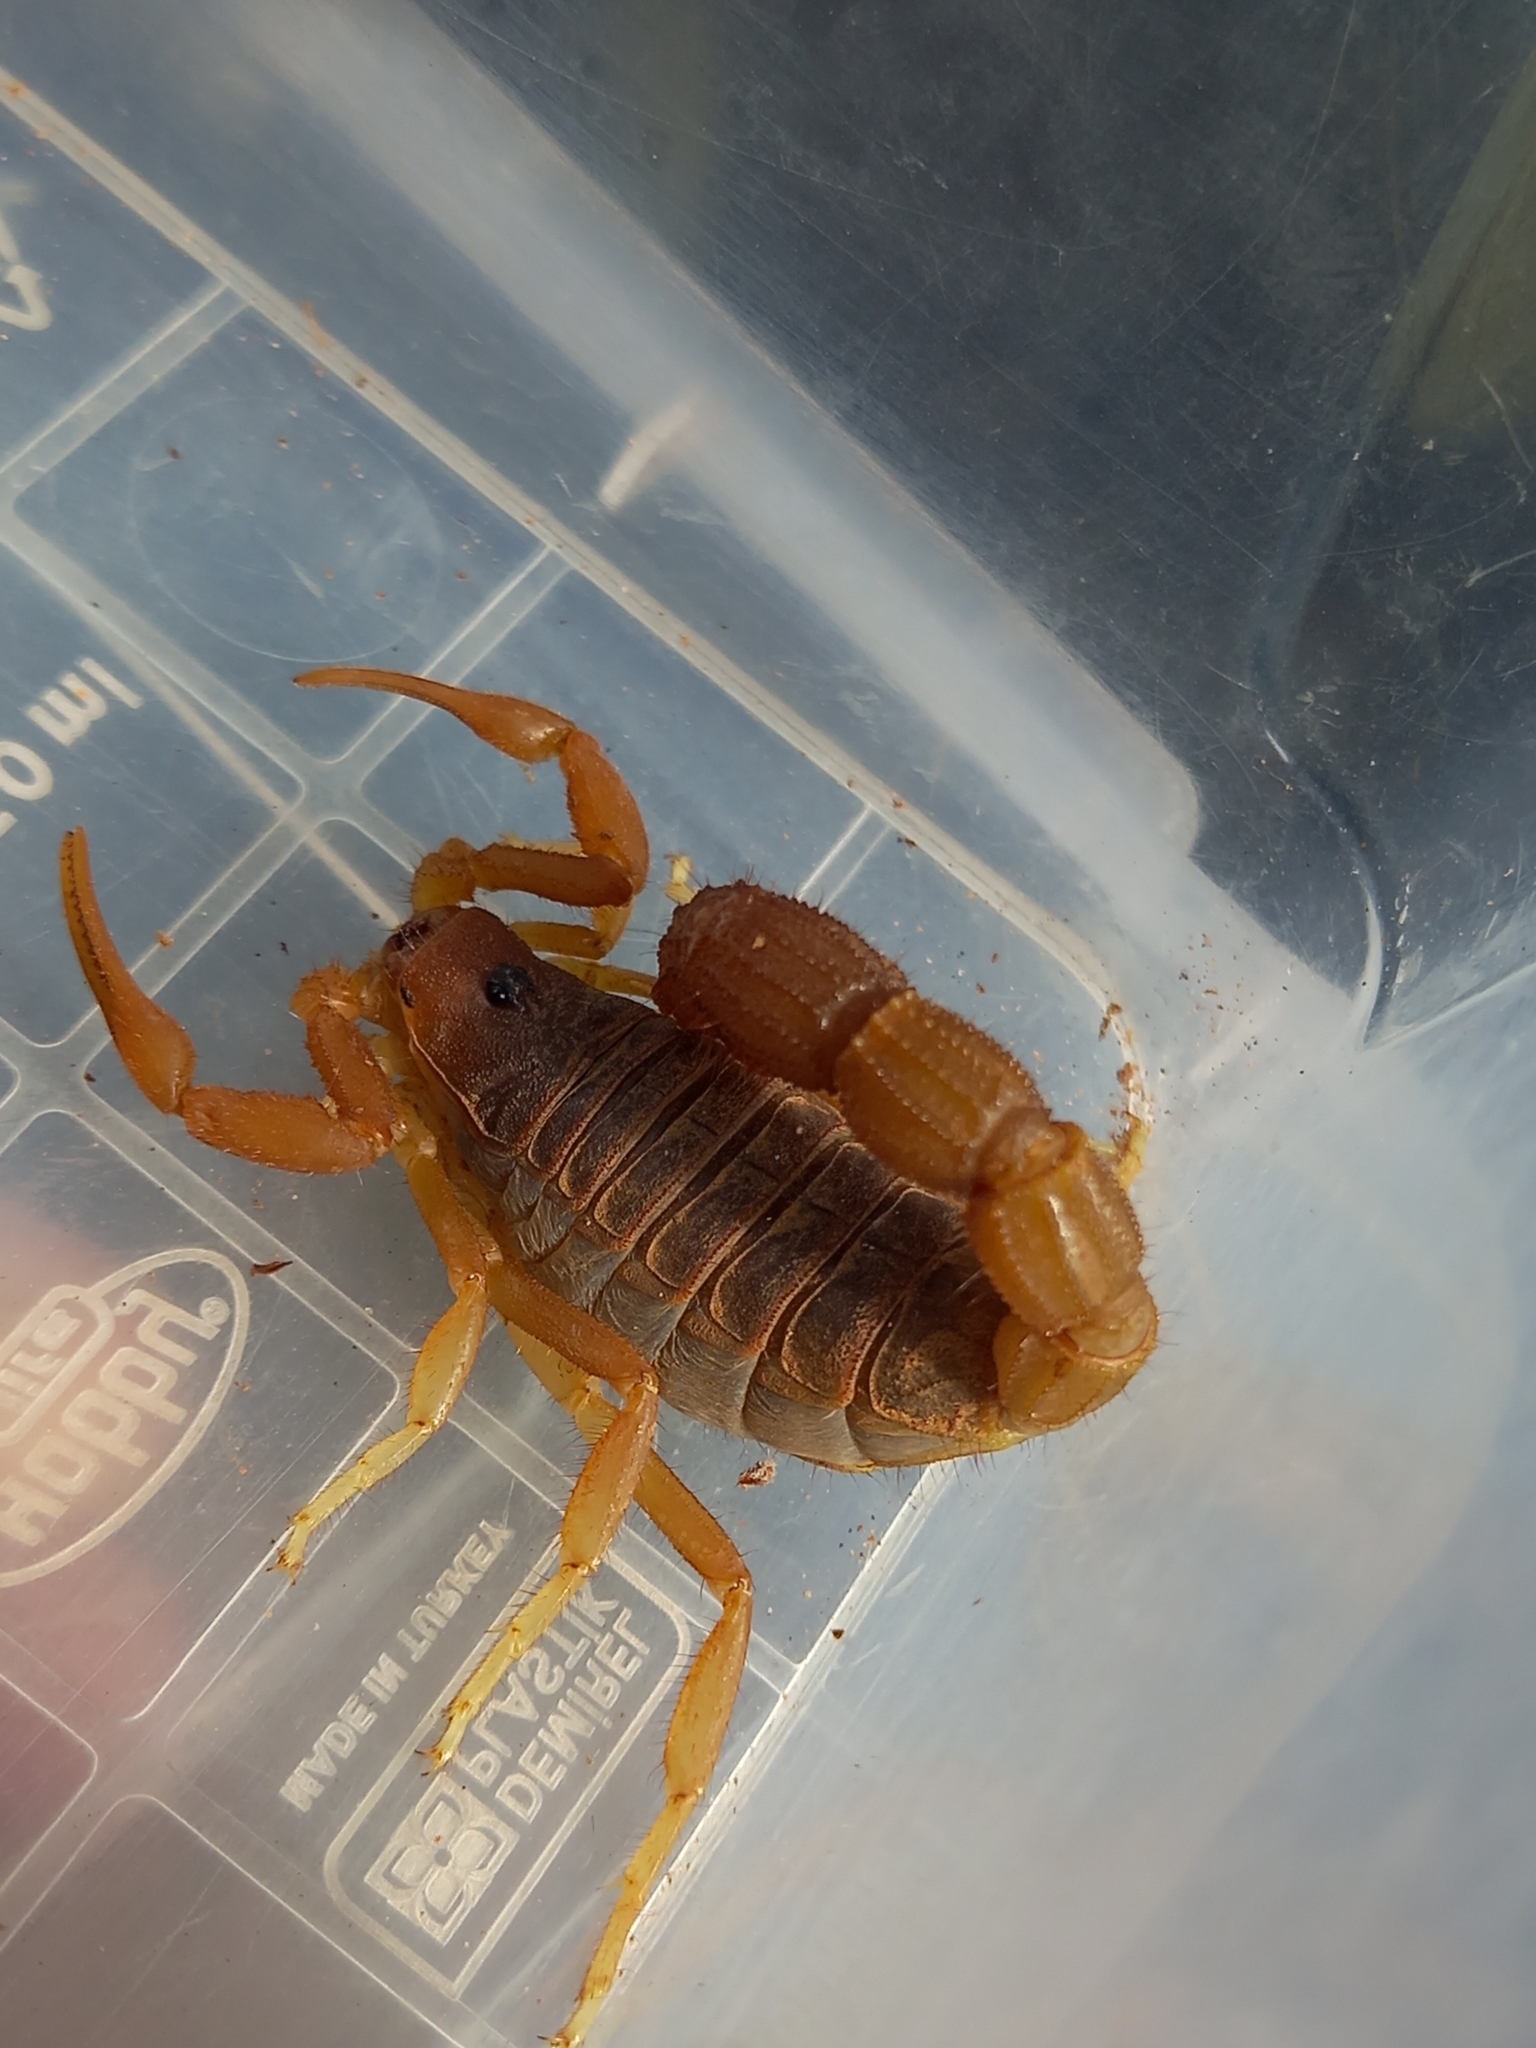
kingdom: Animalia
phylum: Arthropoda
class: Arachnida
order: Scorpiones
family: Buthidae
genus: Parabuthus
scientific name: Parabuthus planicauda
